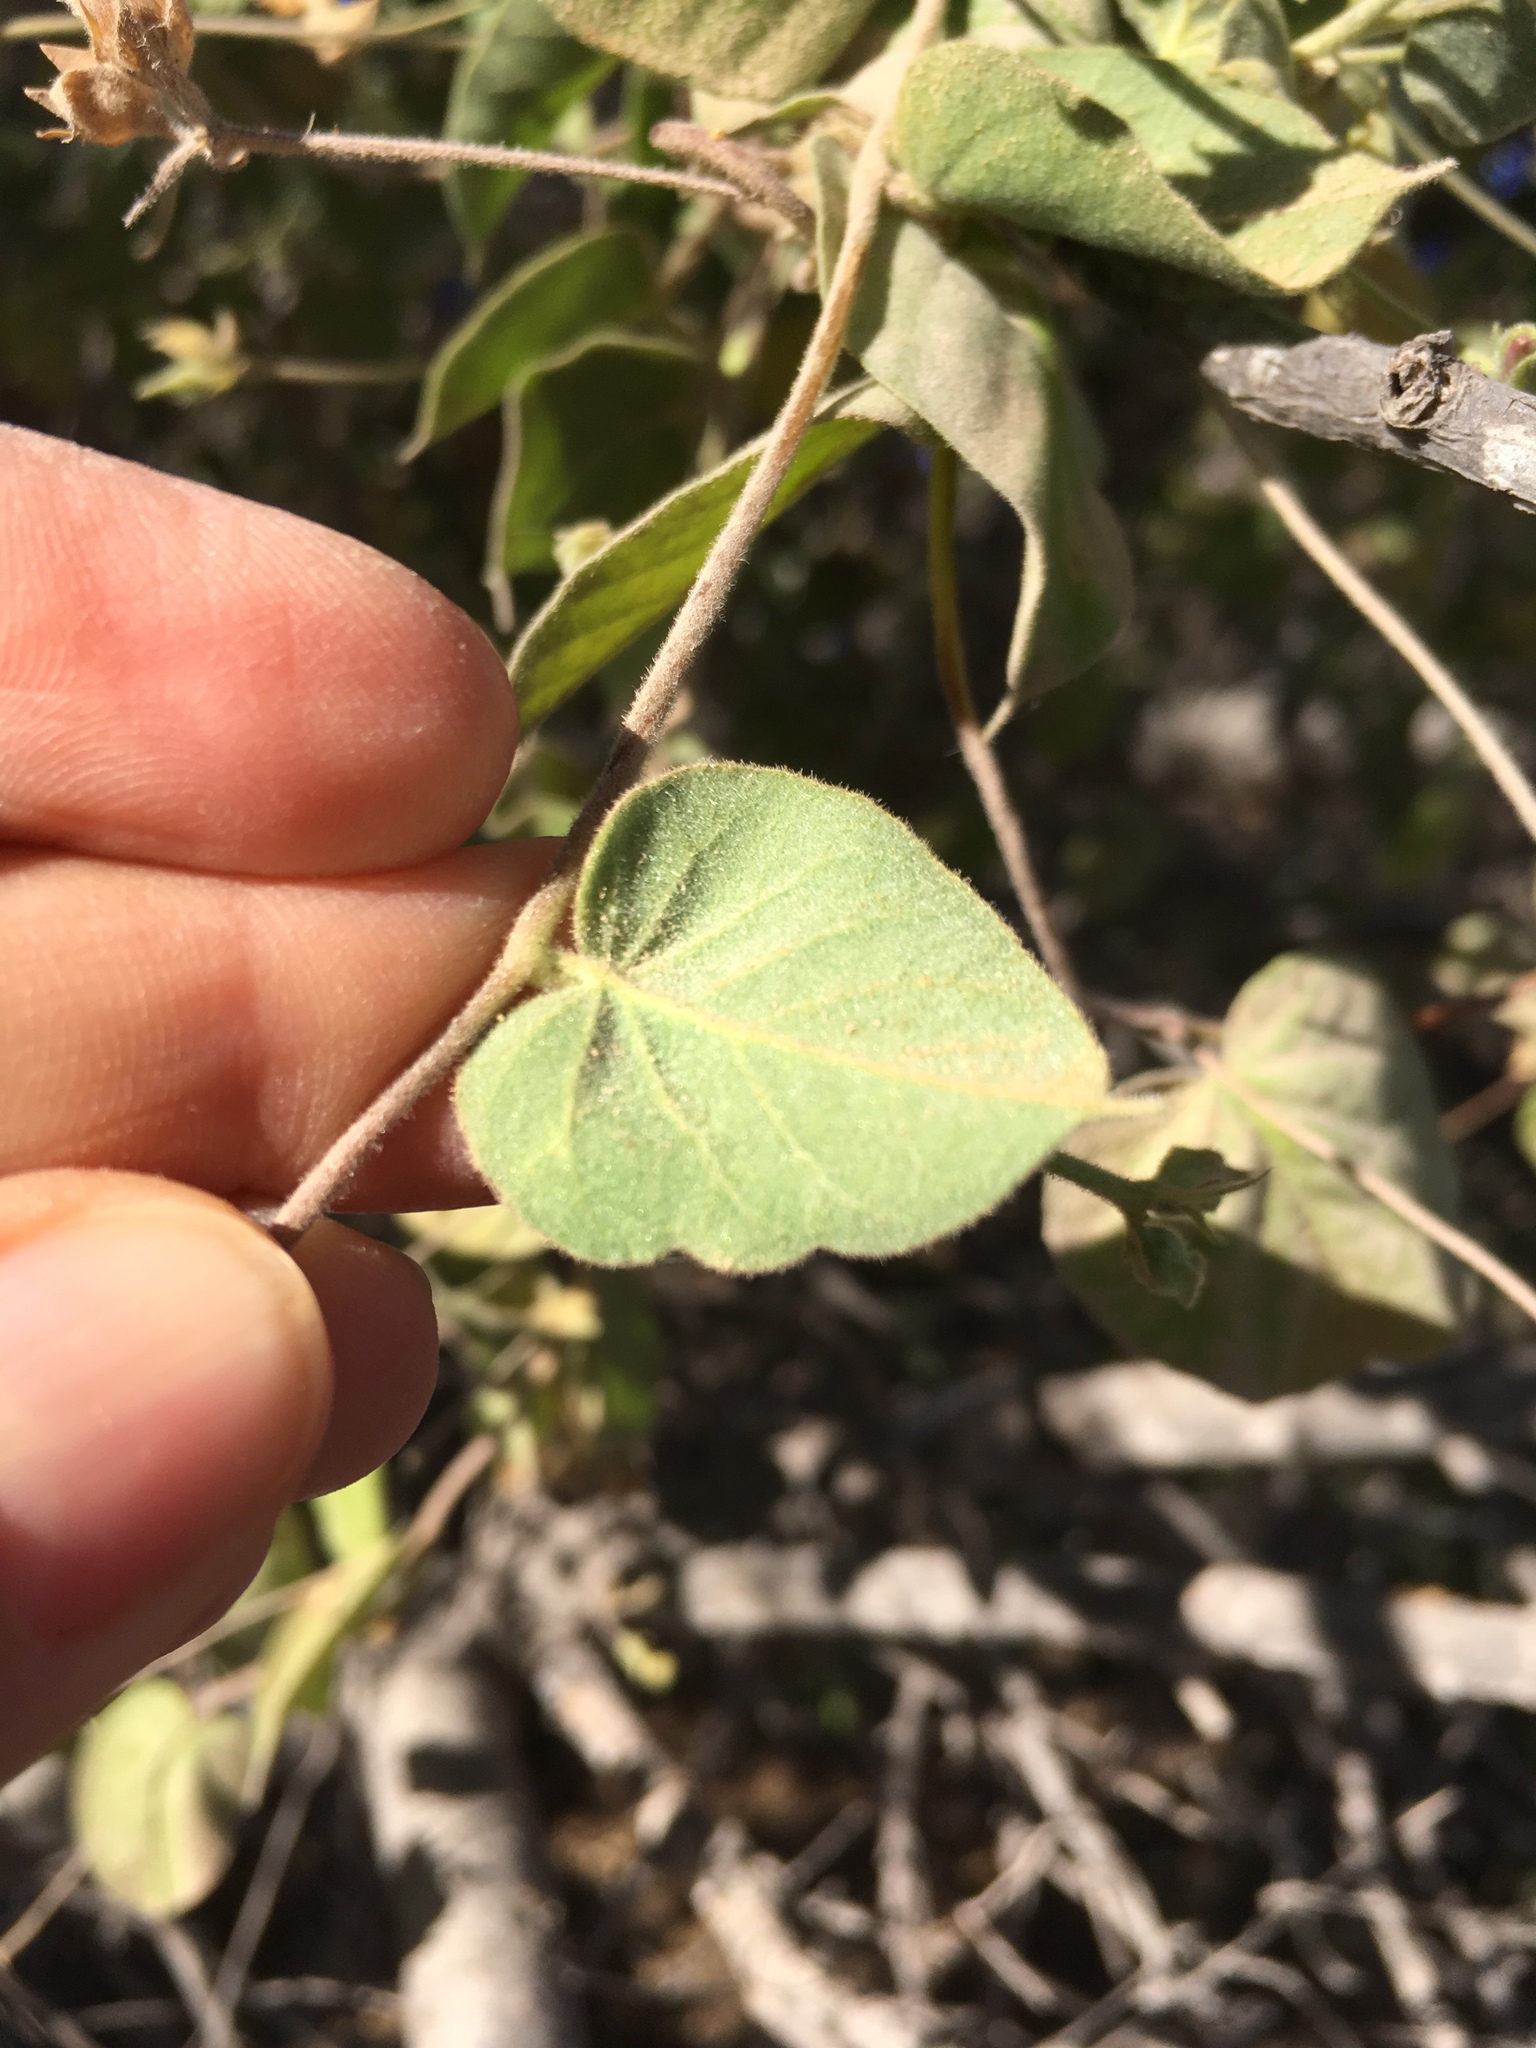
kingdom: Plantae
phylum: Tracheophyta
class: Magnoliopsida
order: Solanales
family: Convolvulaceae
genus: Jacquemontia
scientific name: Jacquemontia abutiloides
